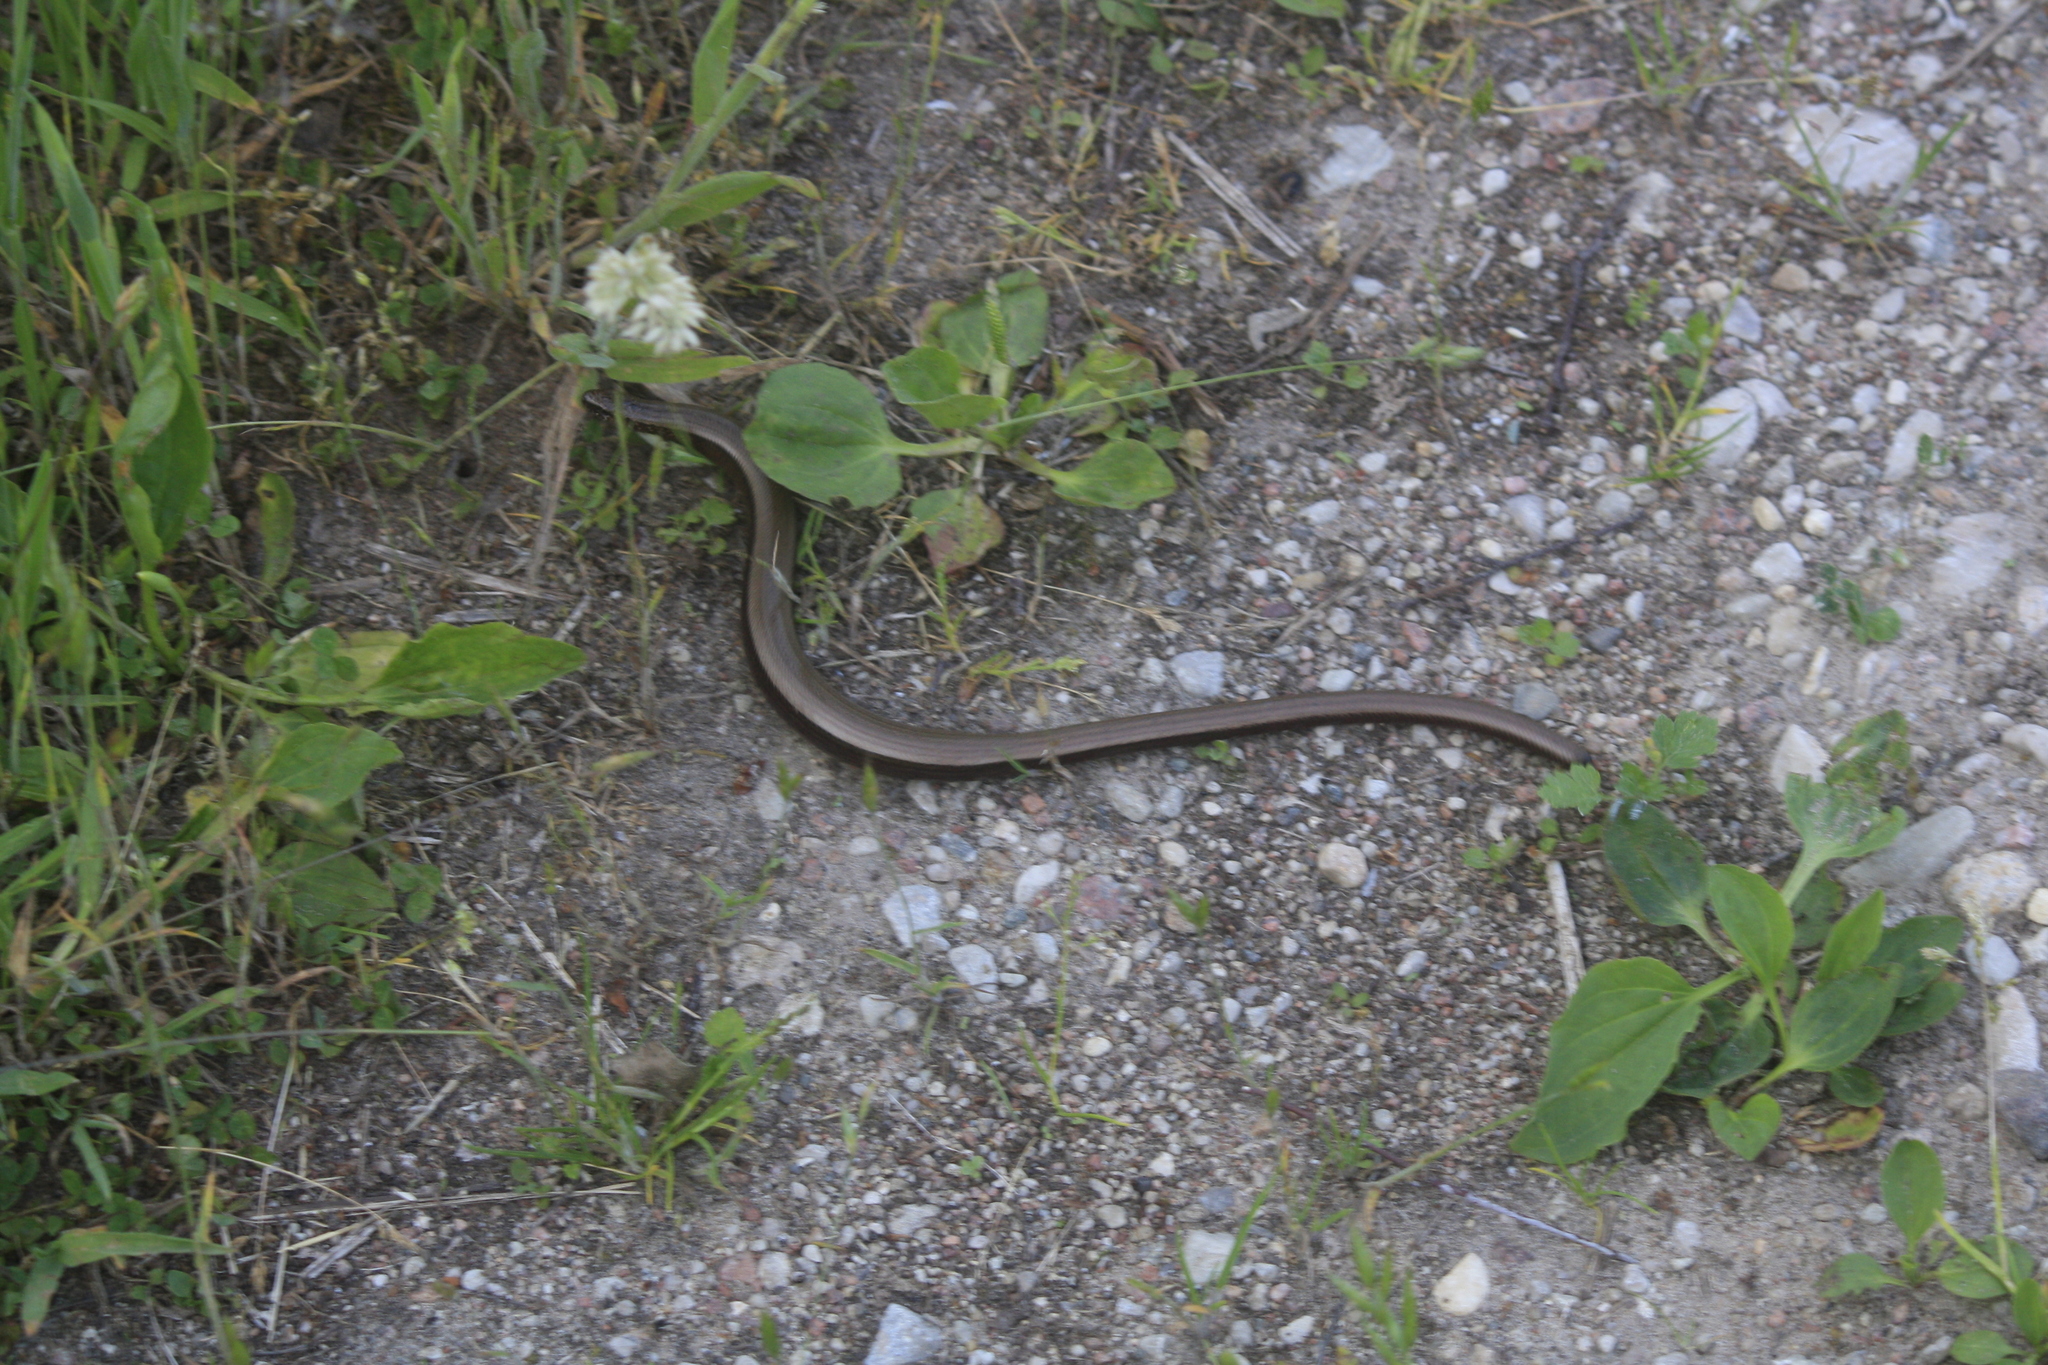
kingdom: Animalia
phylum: Chordata
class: Squamata
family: Anguidae
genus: Anguis
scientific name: Anguis fragilis
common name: Slow worm
